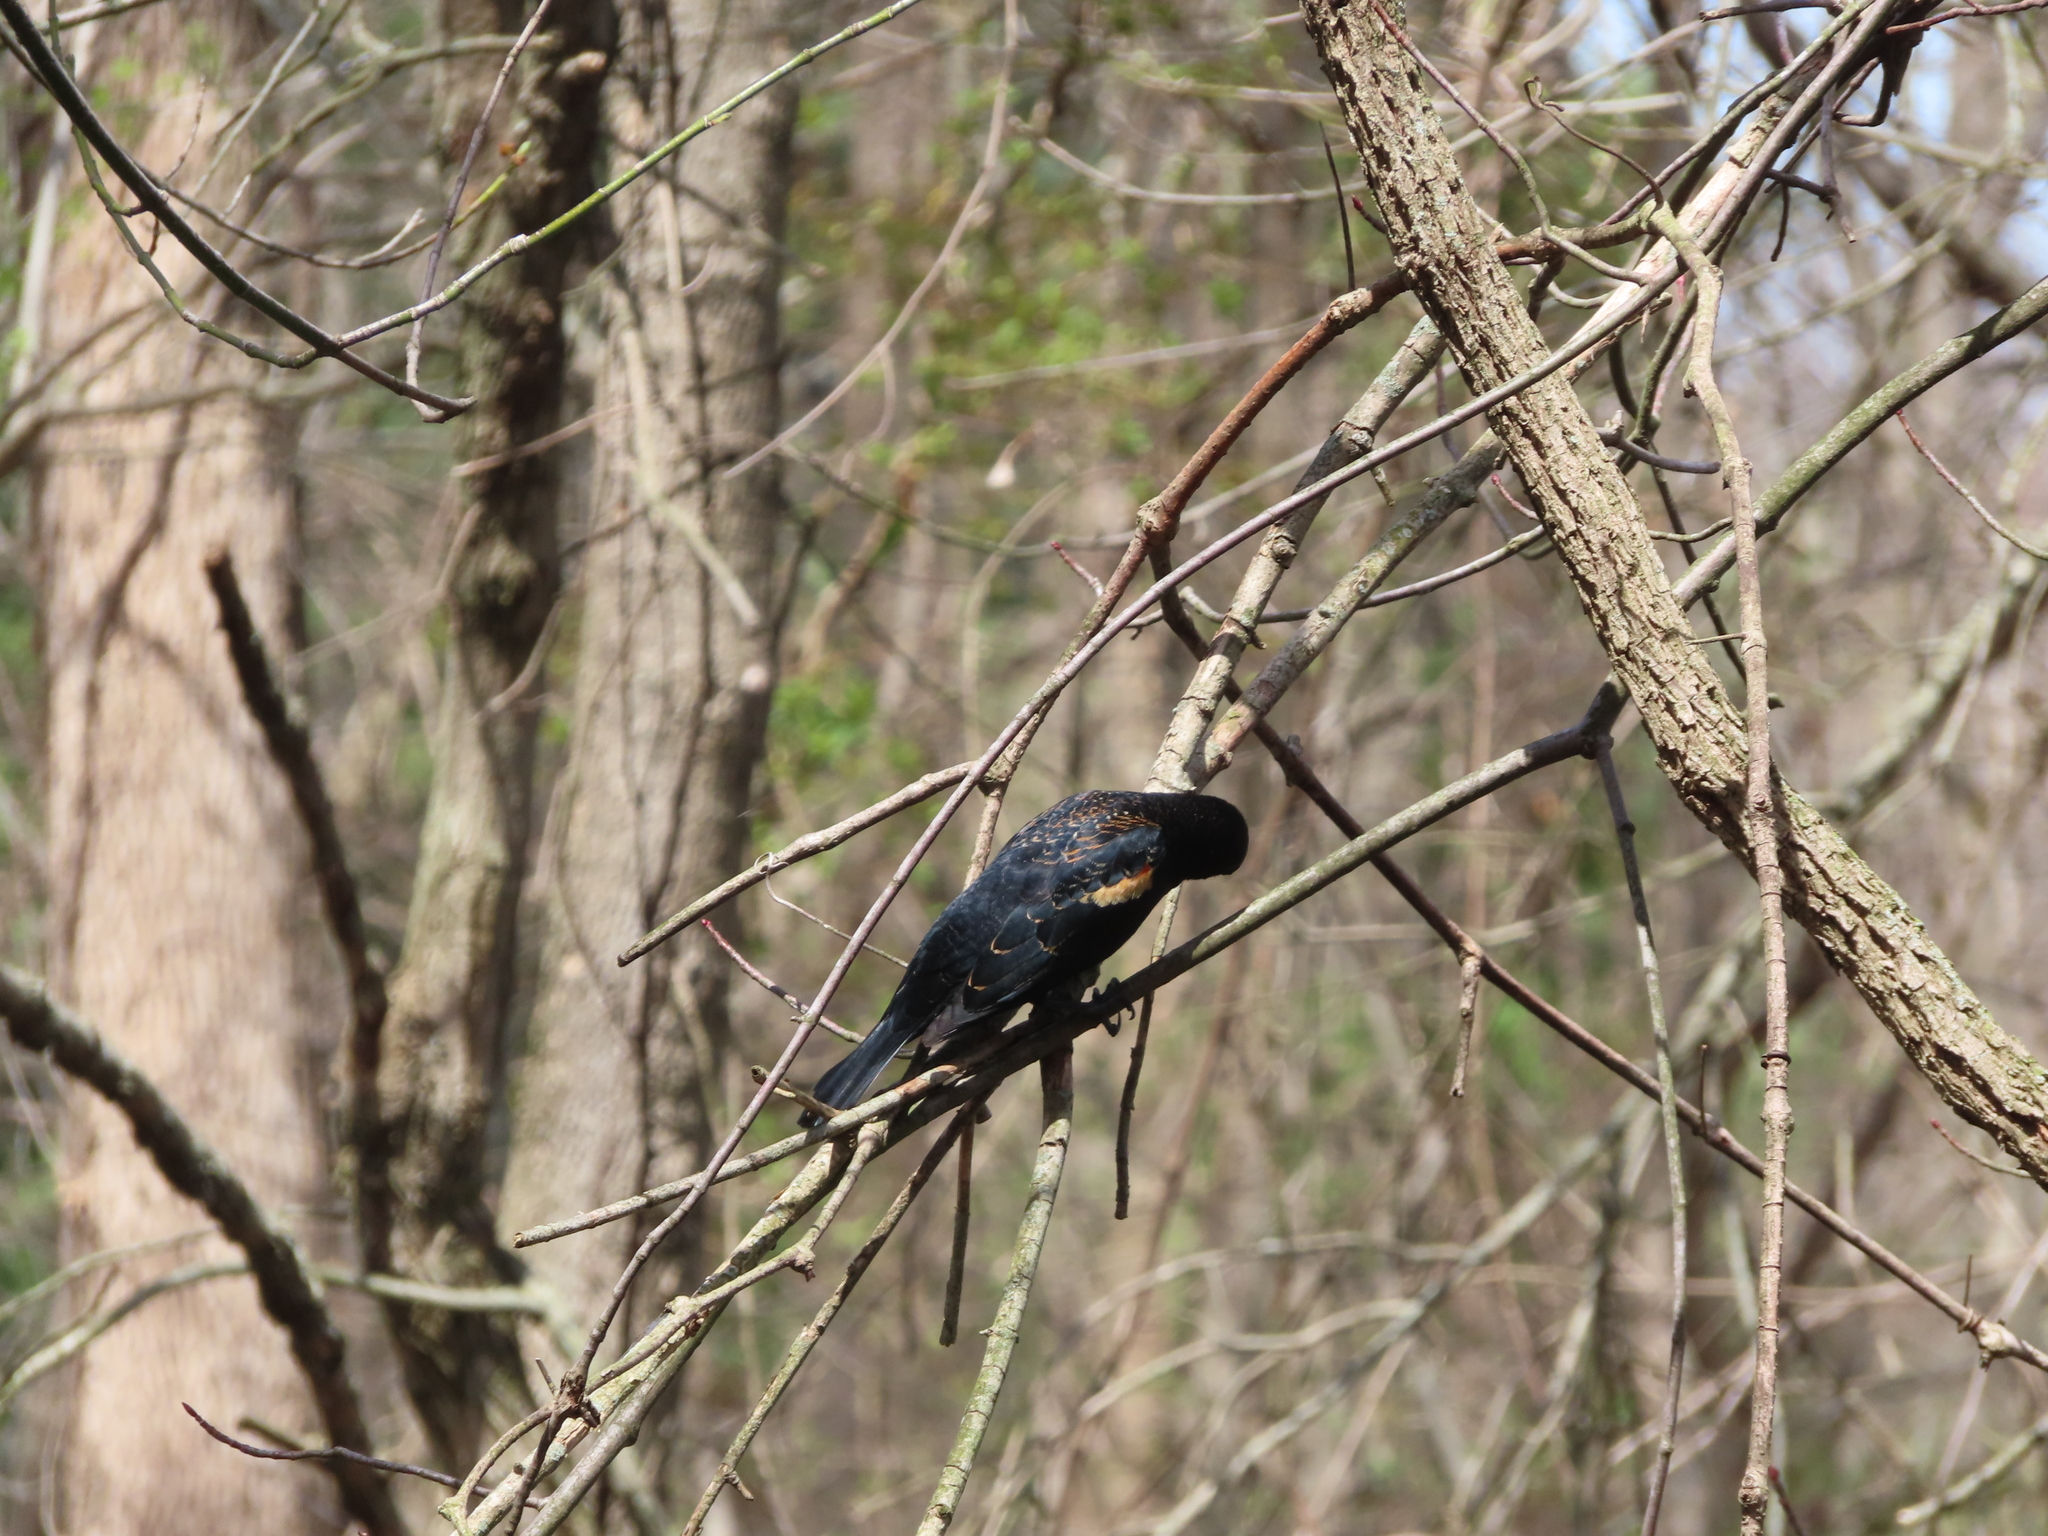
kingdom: Animalia
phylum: Chordata
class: Aves
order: Passeriformes
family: Icteridae
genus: Agelaius
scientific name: Agelaius phoeniceus
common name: Red-winged blackbird
